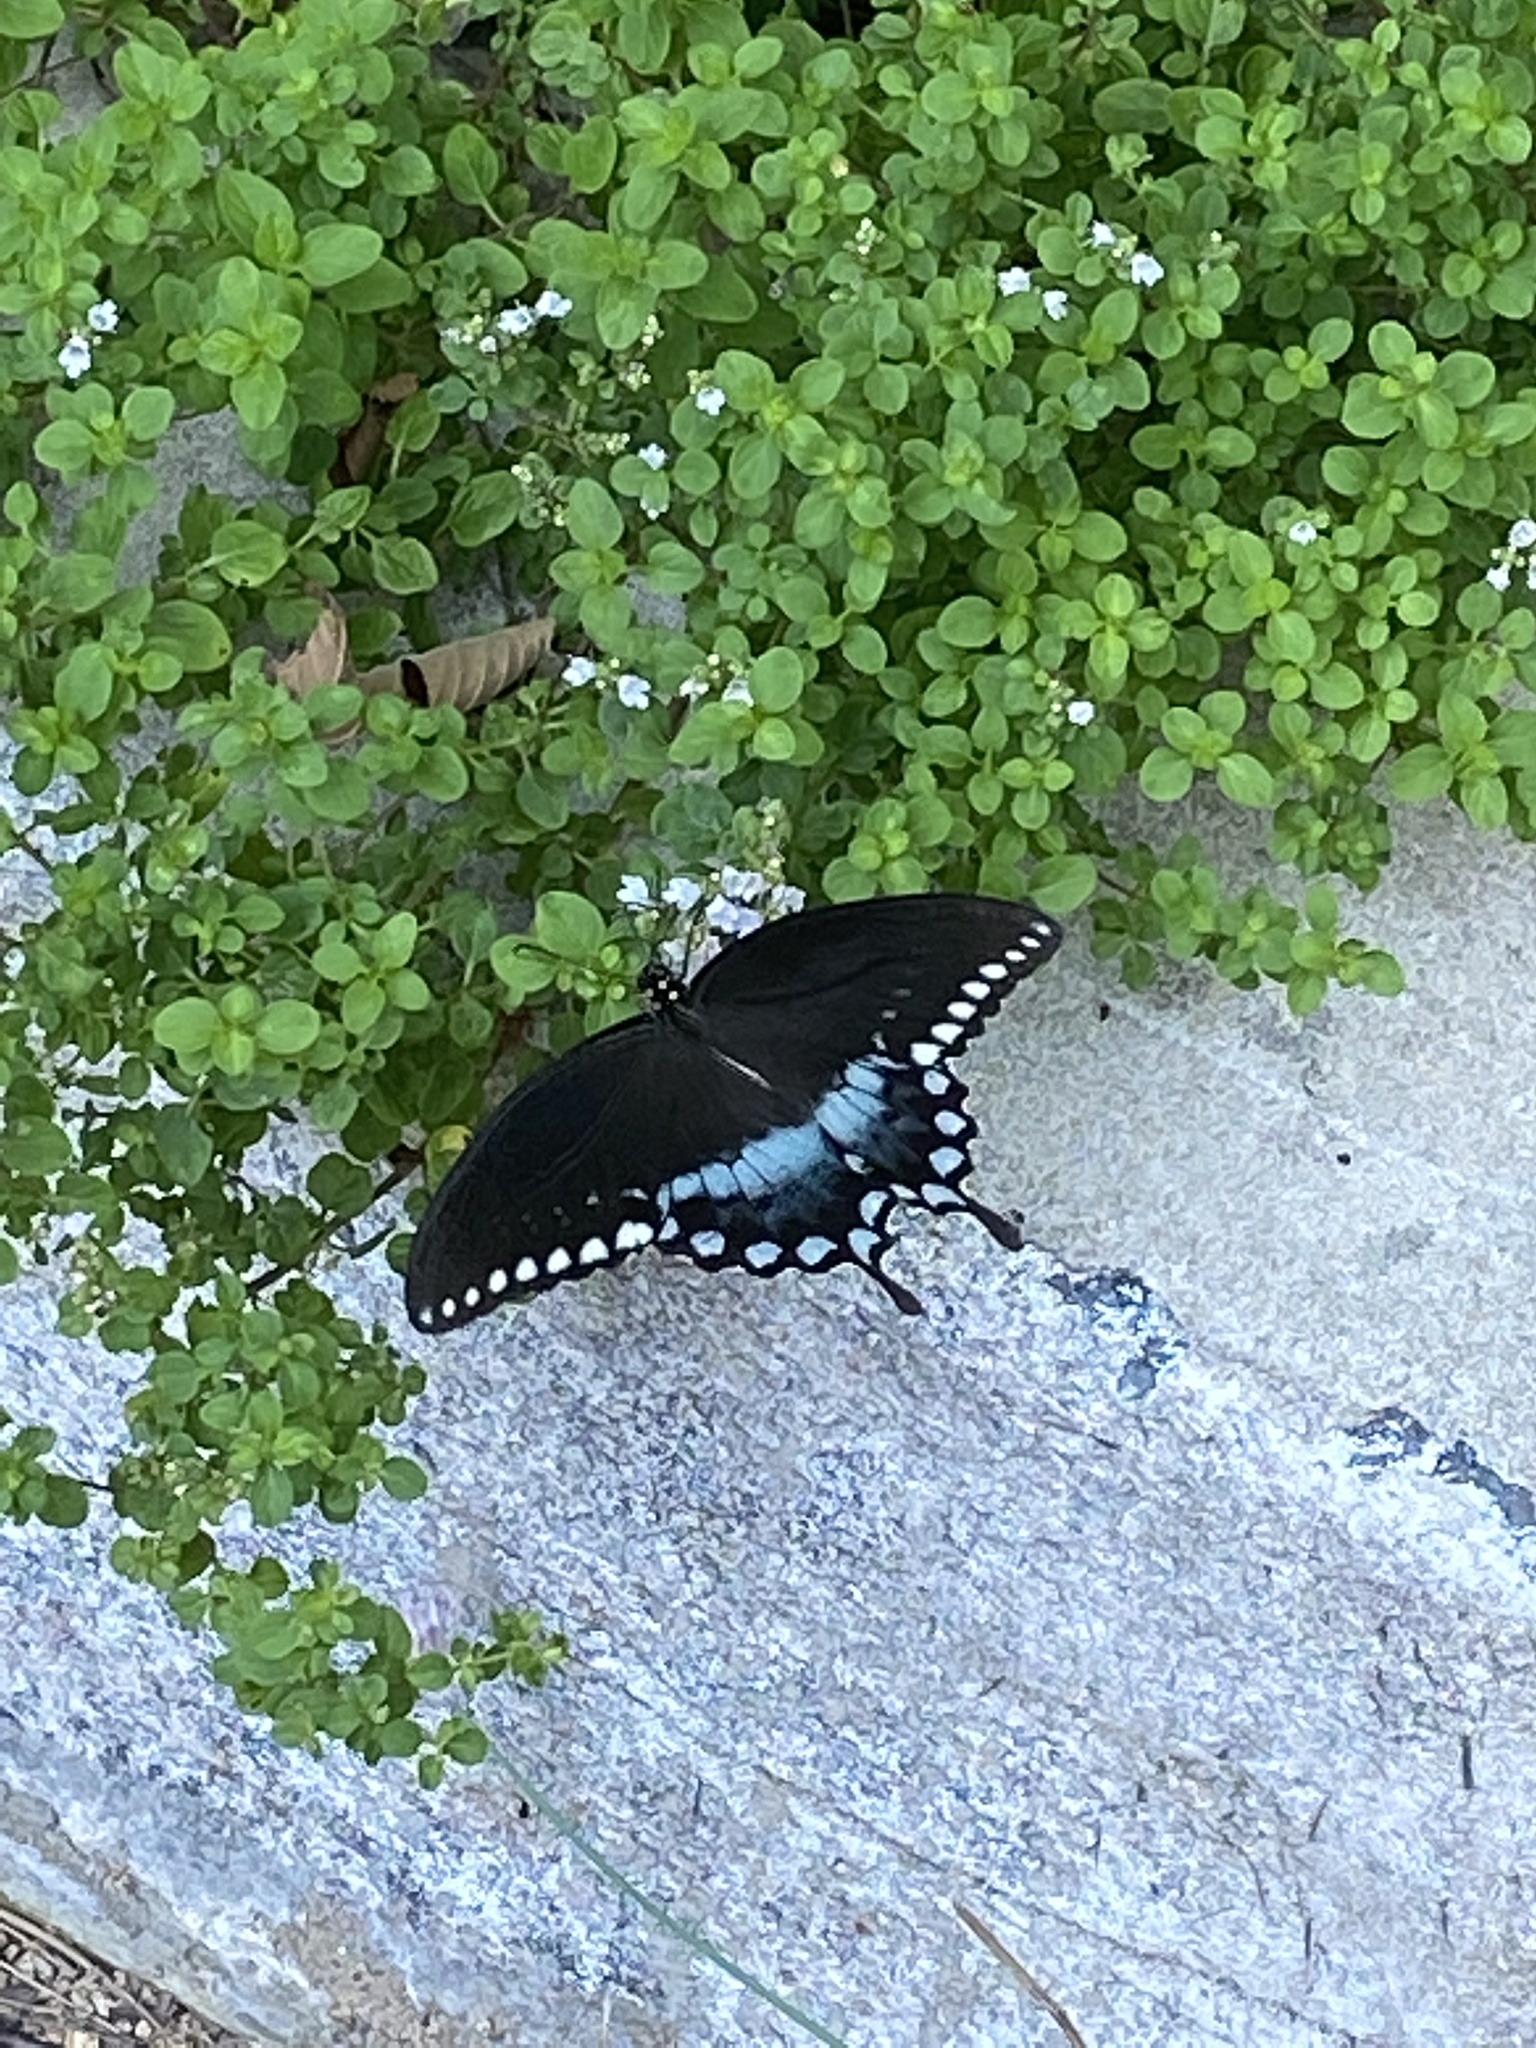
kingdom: Animalia
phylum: Arthropoda
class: Insecta
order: Lepidoptera
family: Papilionidae
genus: Papilio
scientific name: Papilio troilus
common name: Spicebush swallowtail
